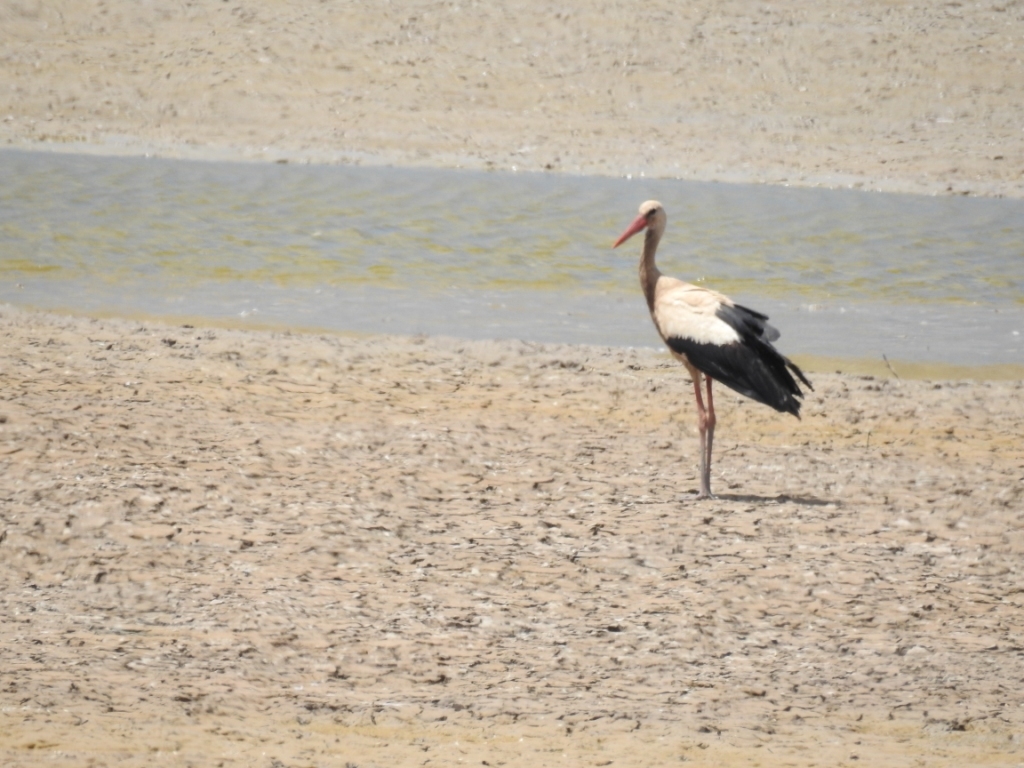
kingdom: Animalia
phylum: Chordata
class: Aves
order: Ciconiiformes
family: Ciconiidae
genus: Ciconia
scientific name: Ciconia ciconia
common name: White stork
